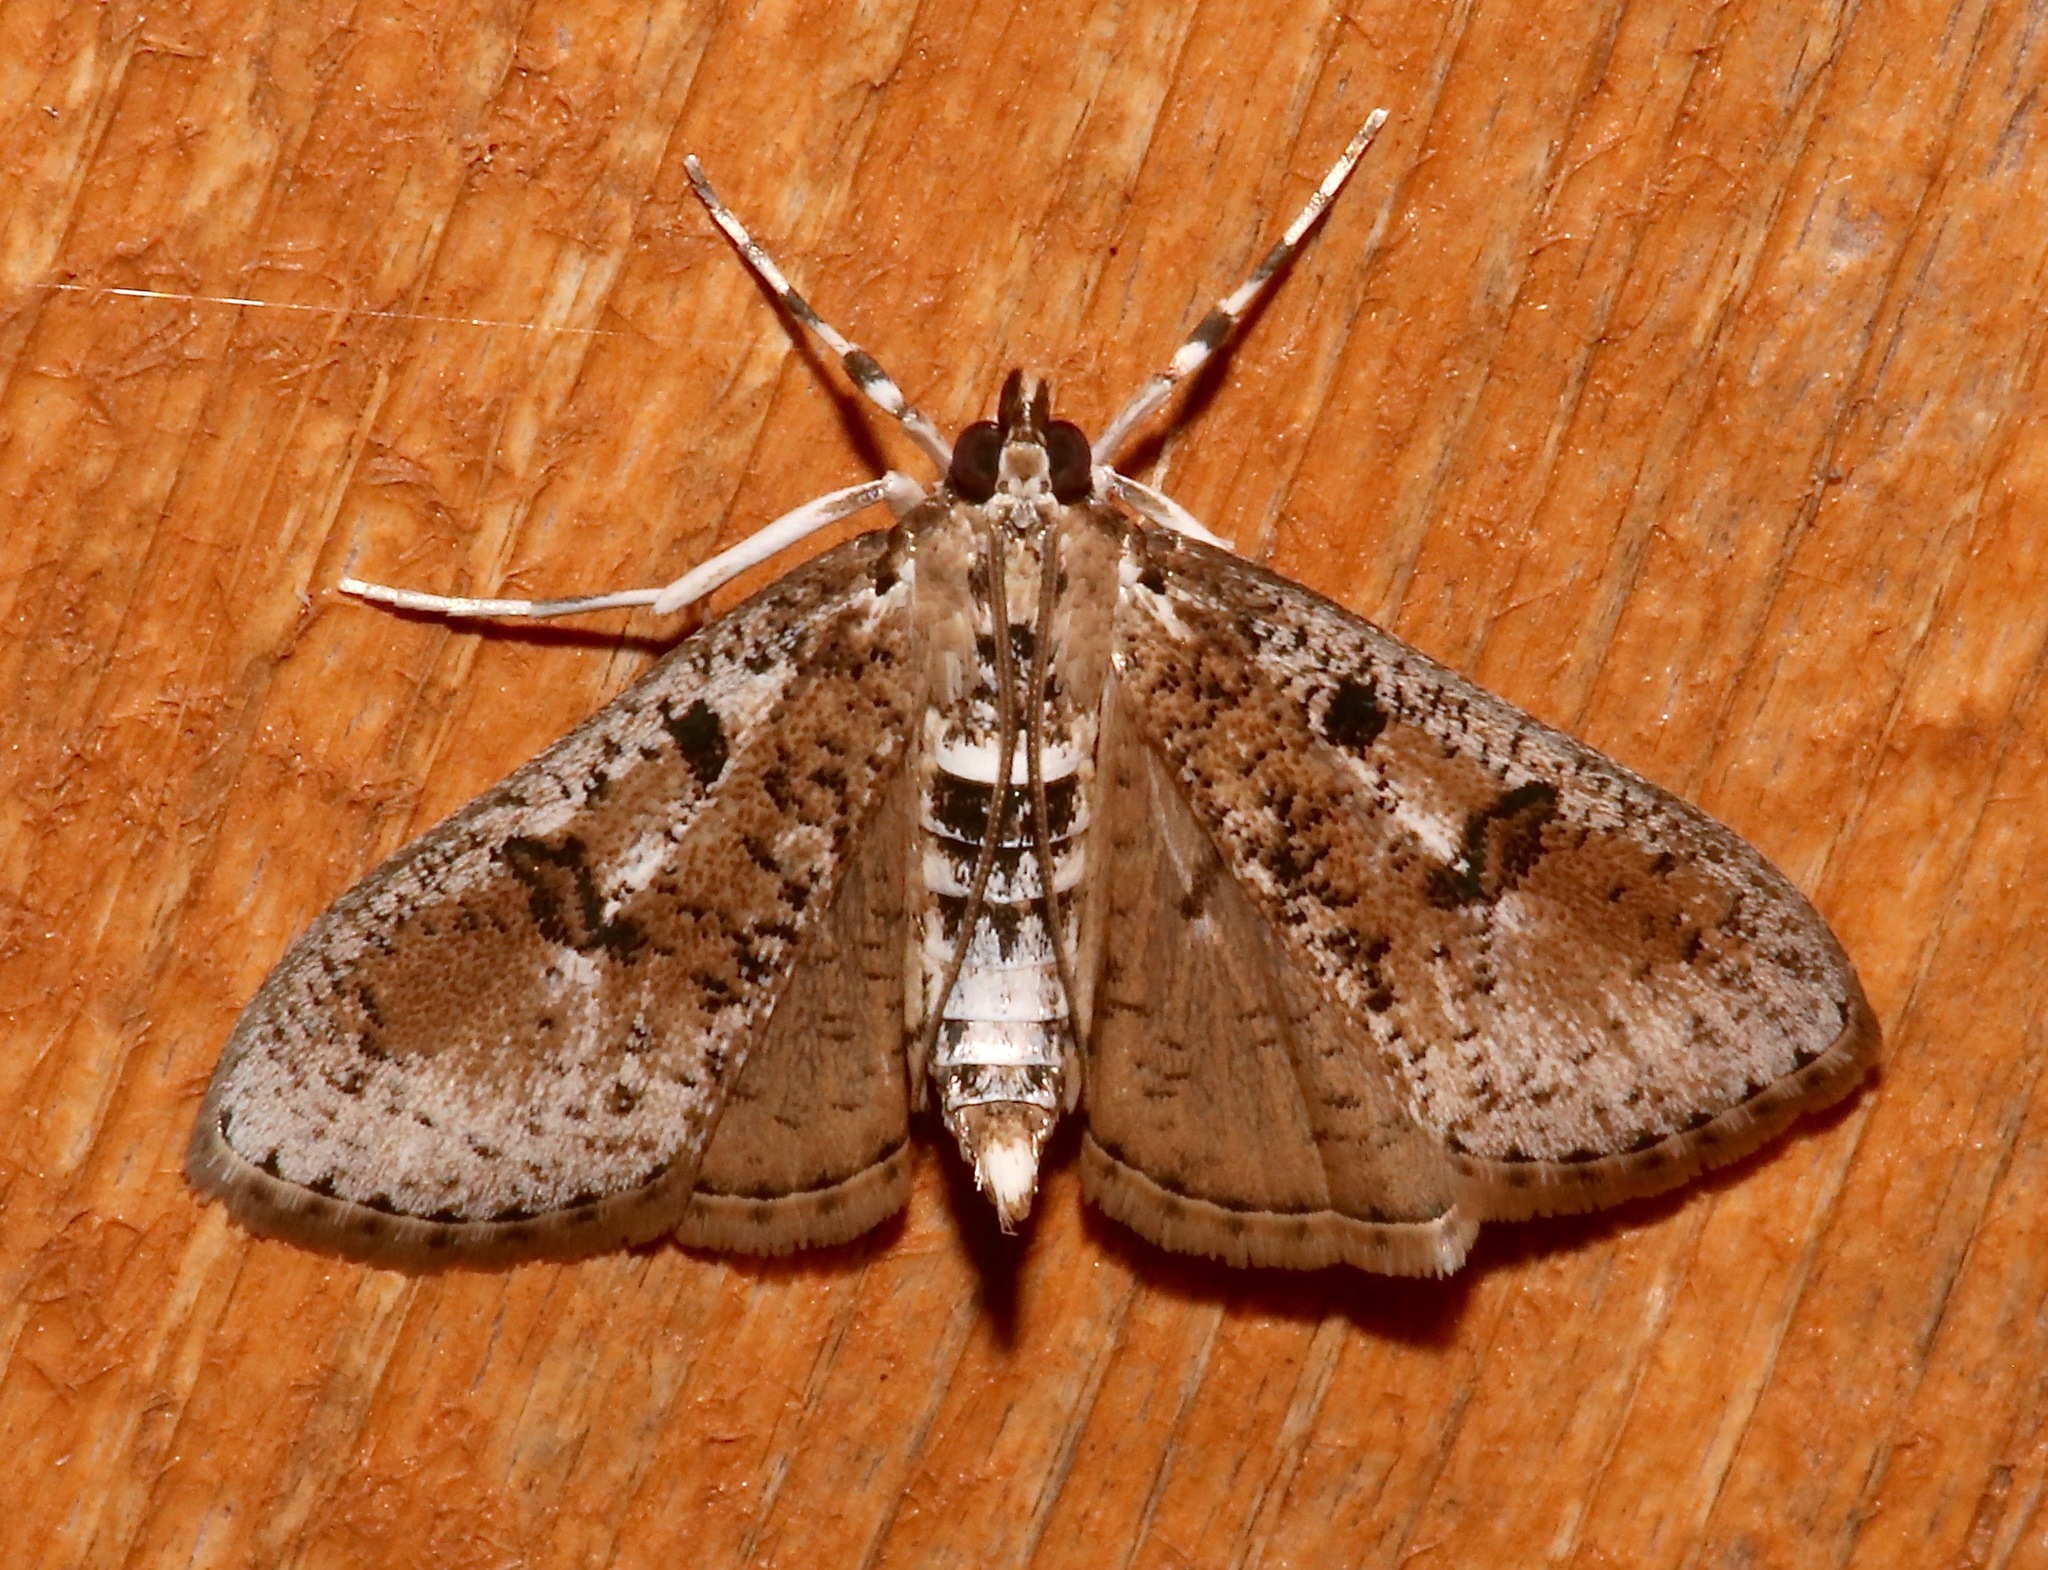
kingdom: Animalia
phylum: Arthropoda
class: Insecta
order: Lepidoptera
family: Crambidae
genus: Palpita
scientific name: Palpita magniferalis
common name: Splendid palpita moth
